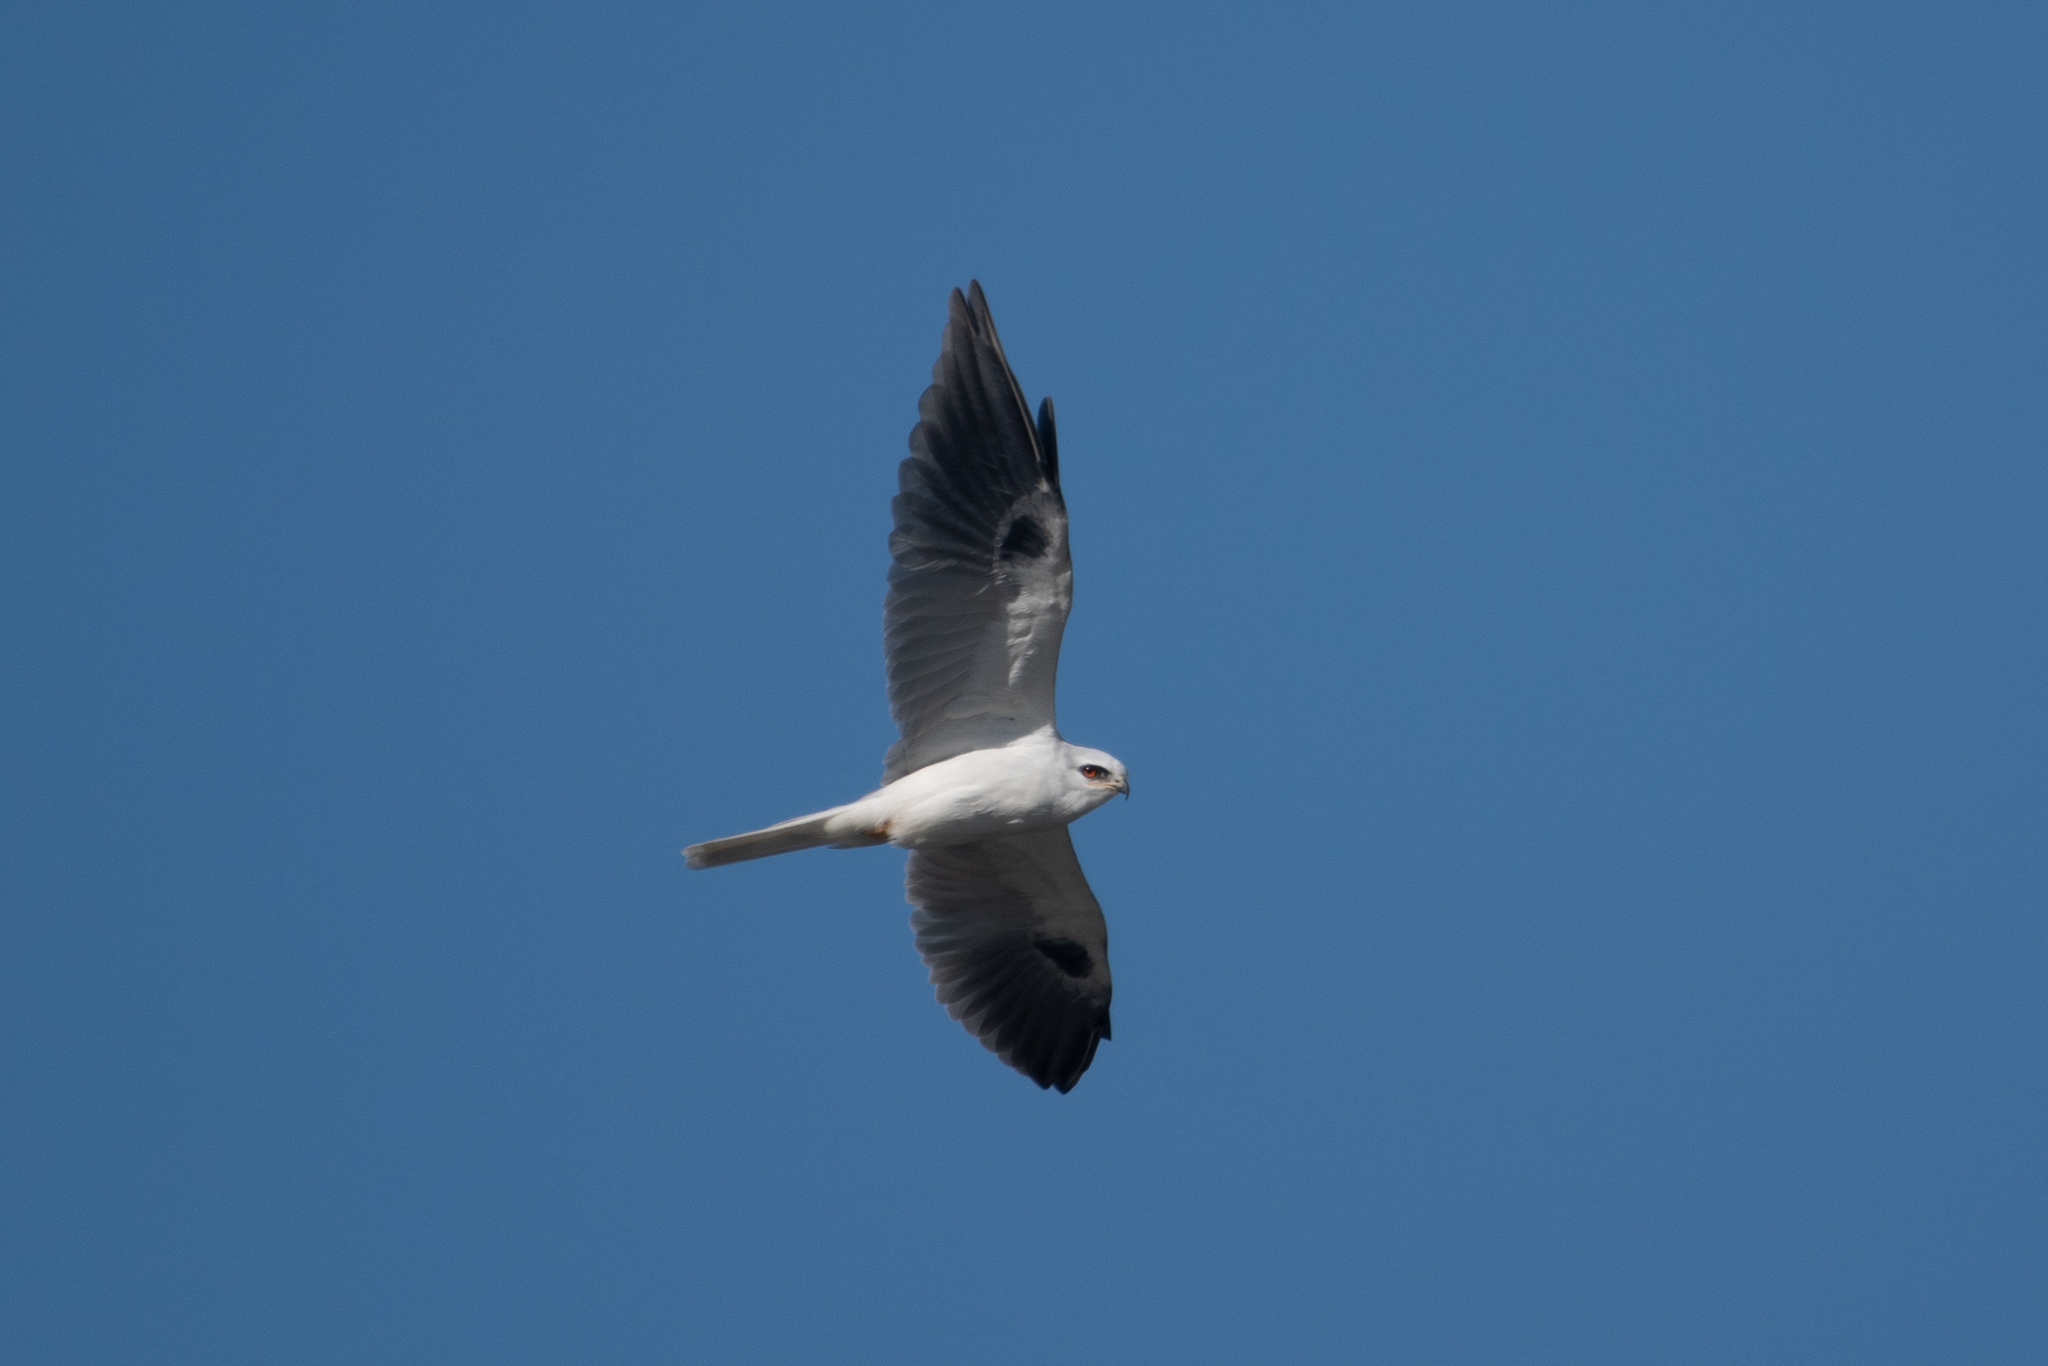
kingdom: Animalia
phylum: Chordata
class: Aves
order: Accipitriformes
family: Accipitridae
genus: Elanus
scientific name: Elanus leucurus
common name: White-tailed kite
